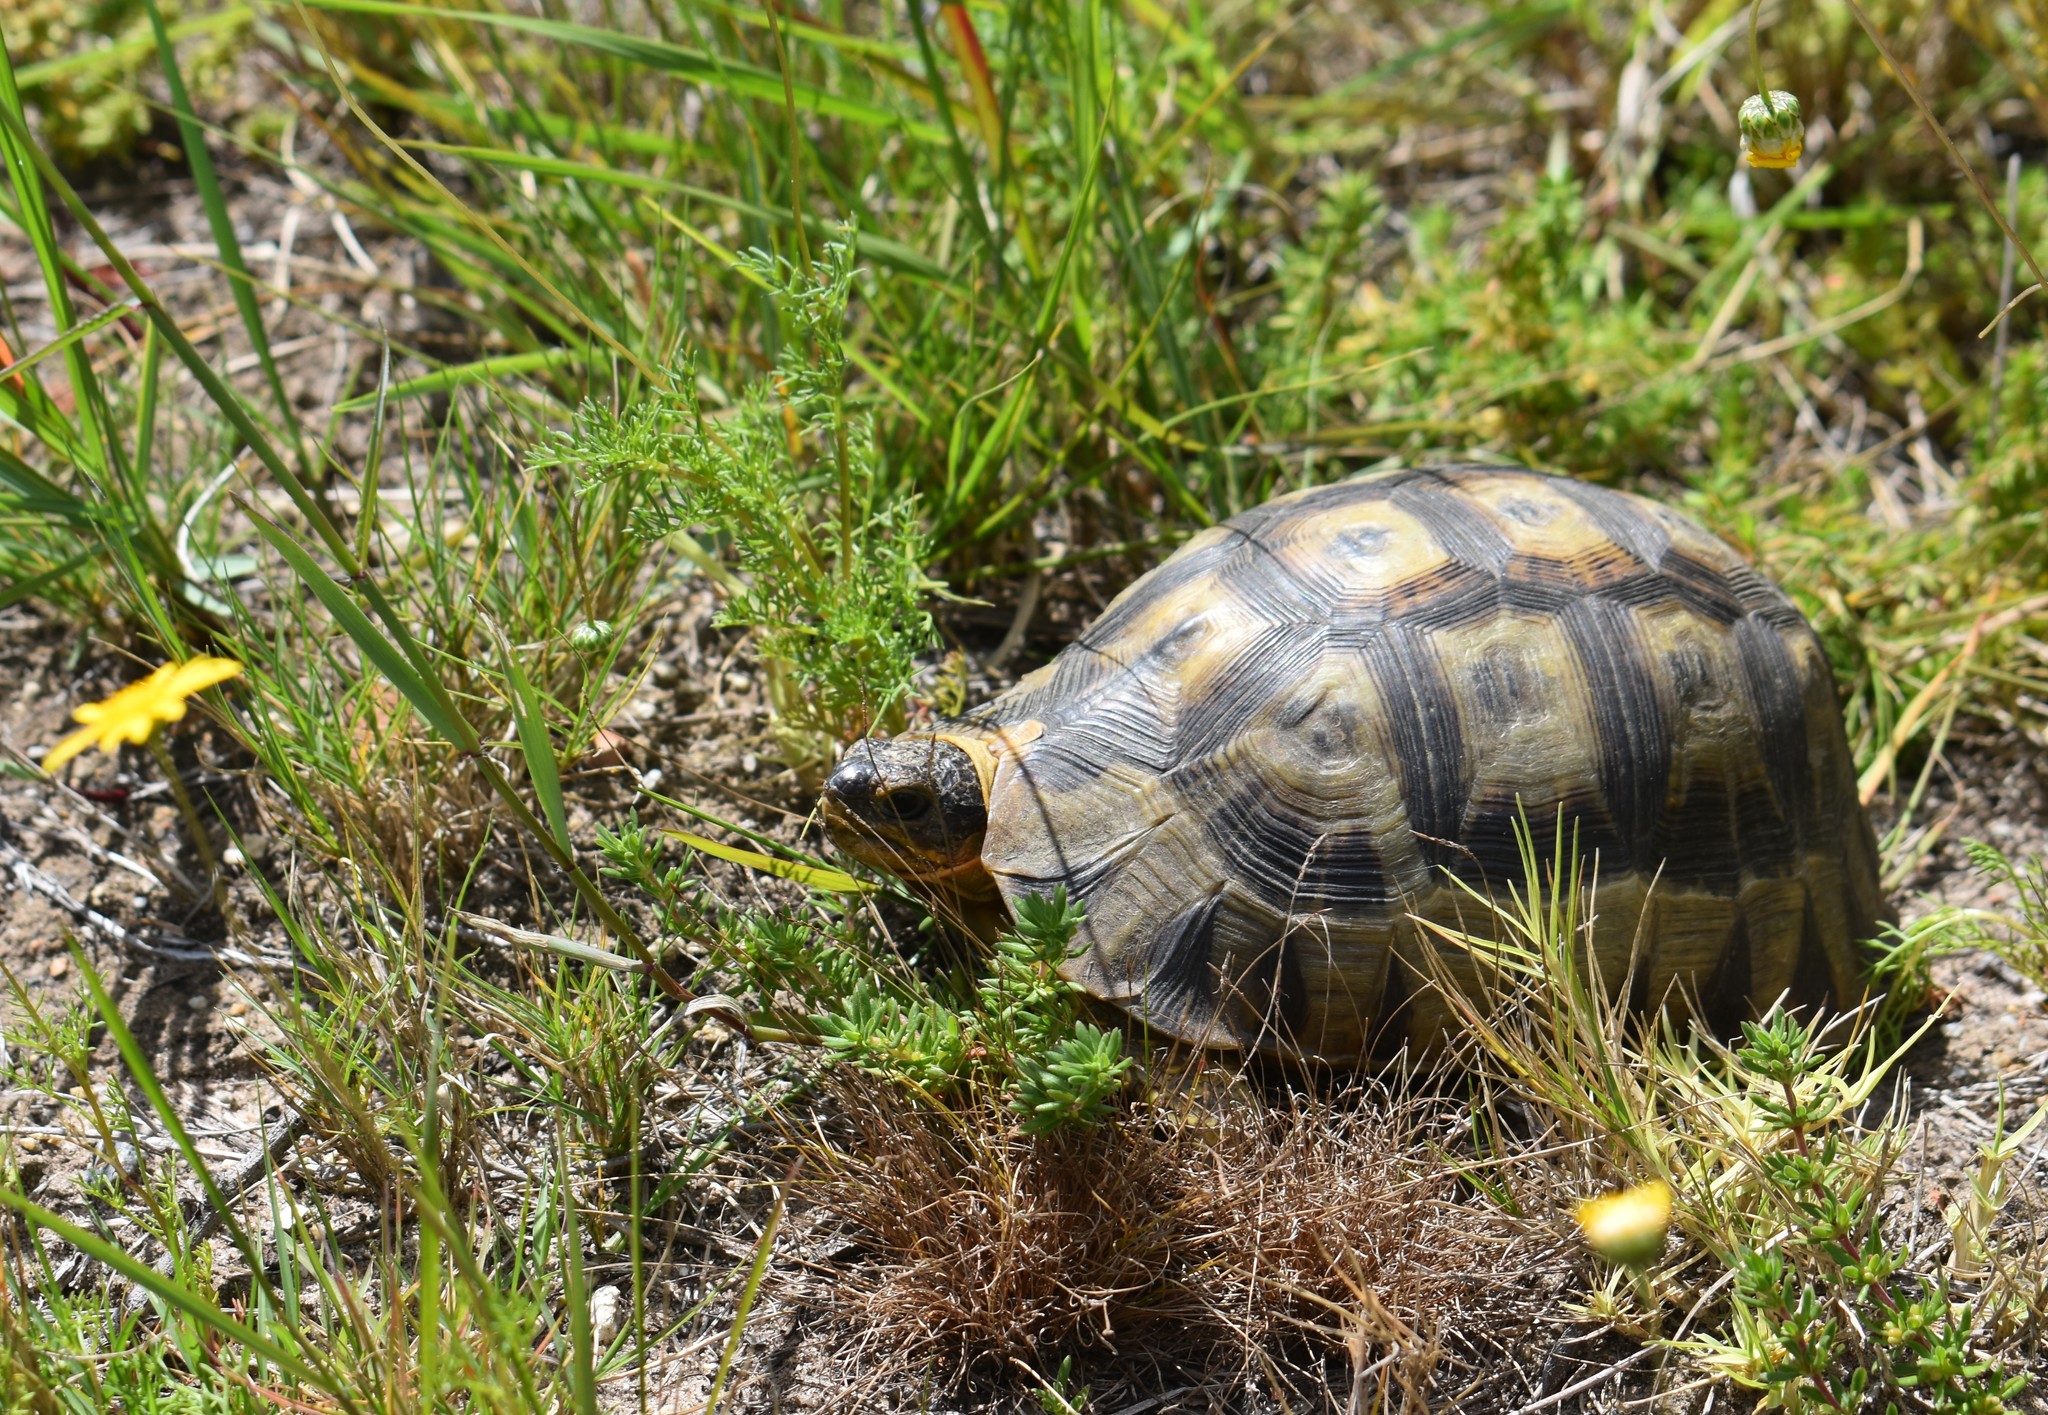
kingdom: Animalia
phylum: Chordata
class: Testudines
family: Testudinidae
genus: Chersina
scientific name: Chersina angulata
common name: South african bowsprit tortoise
